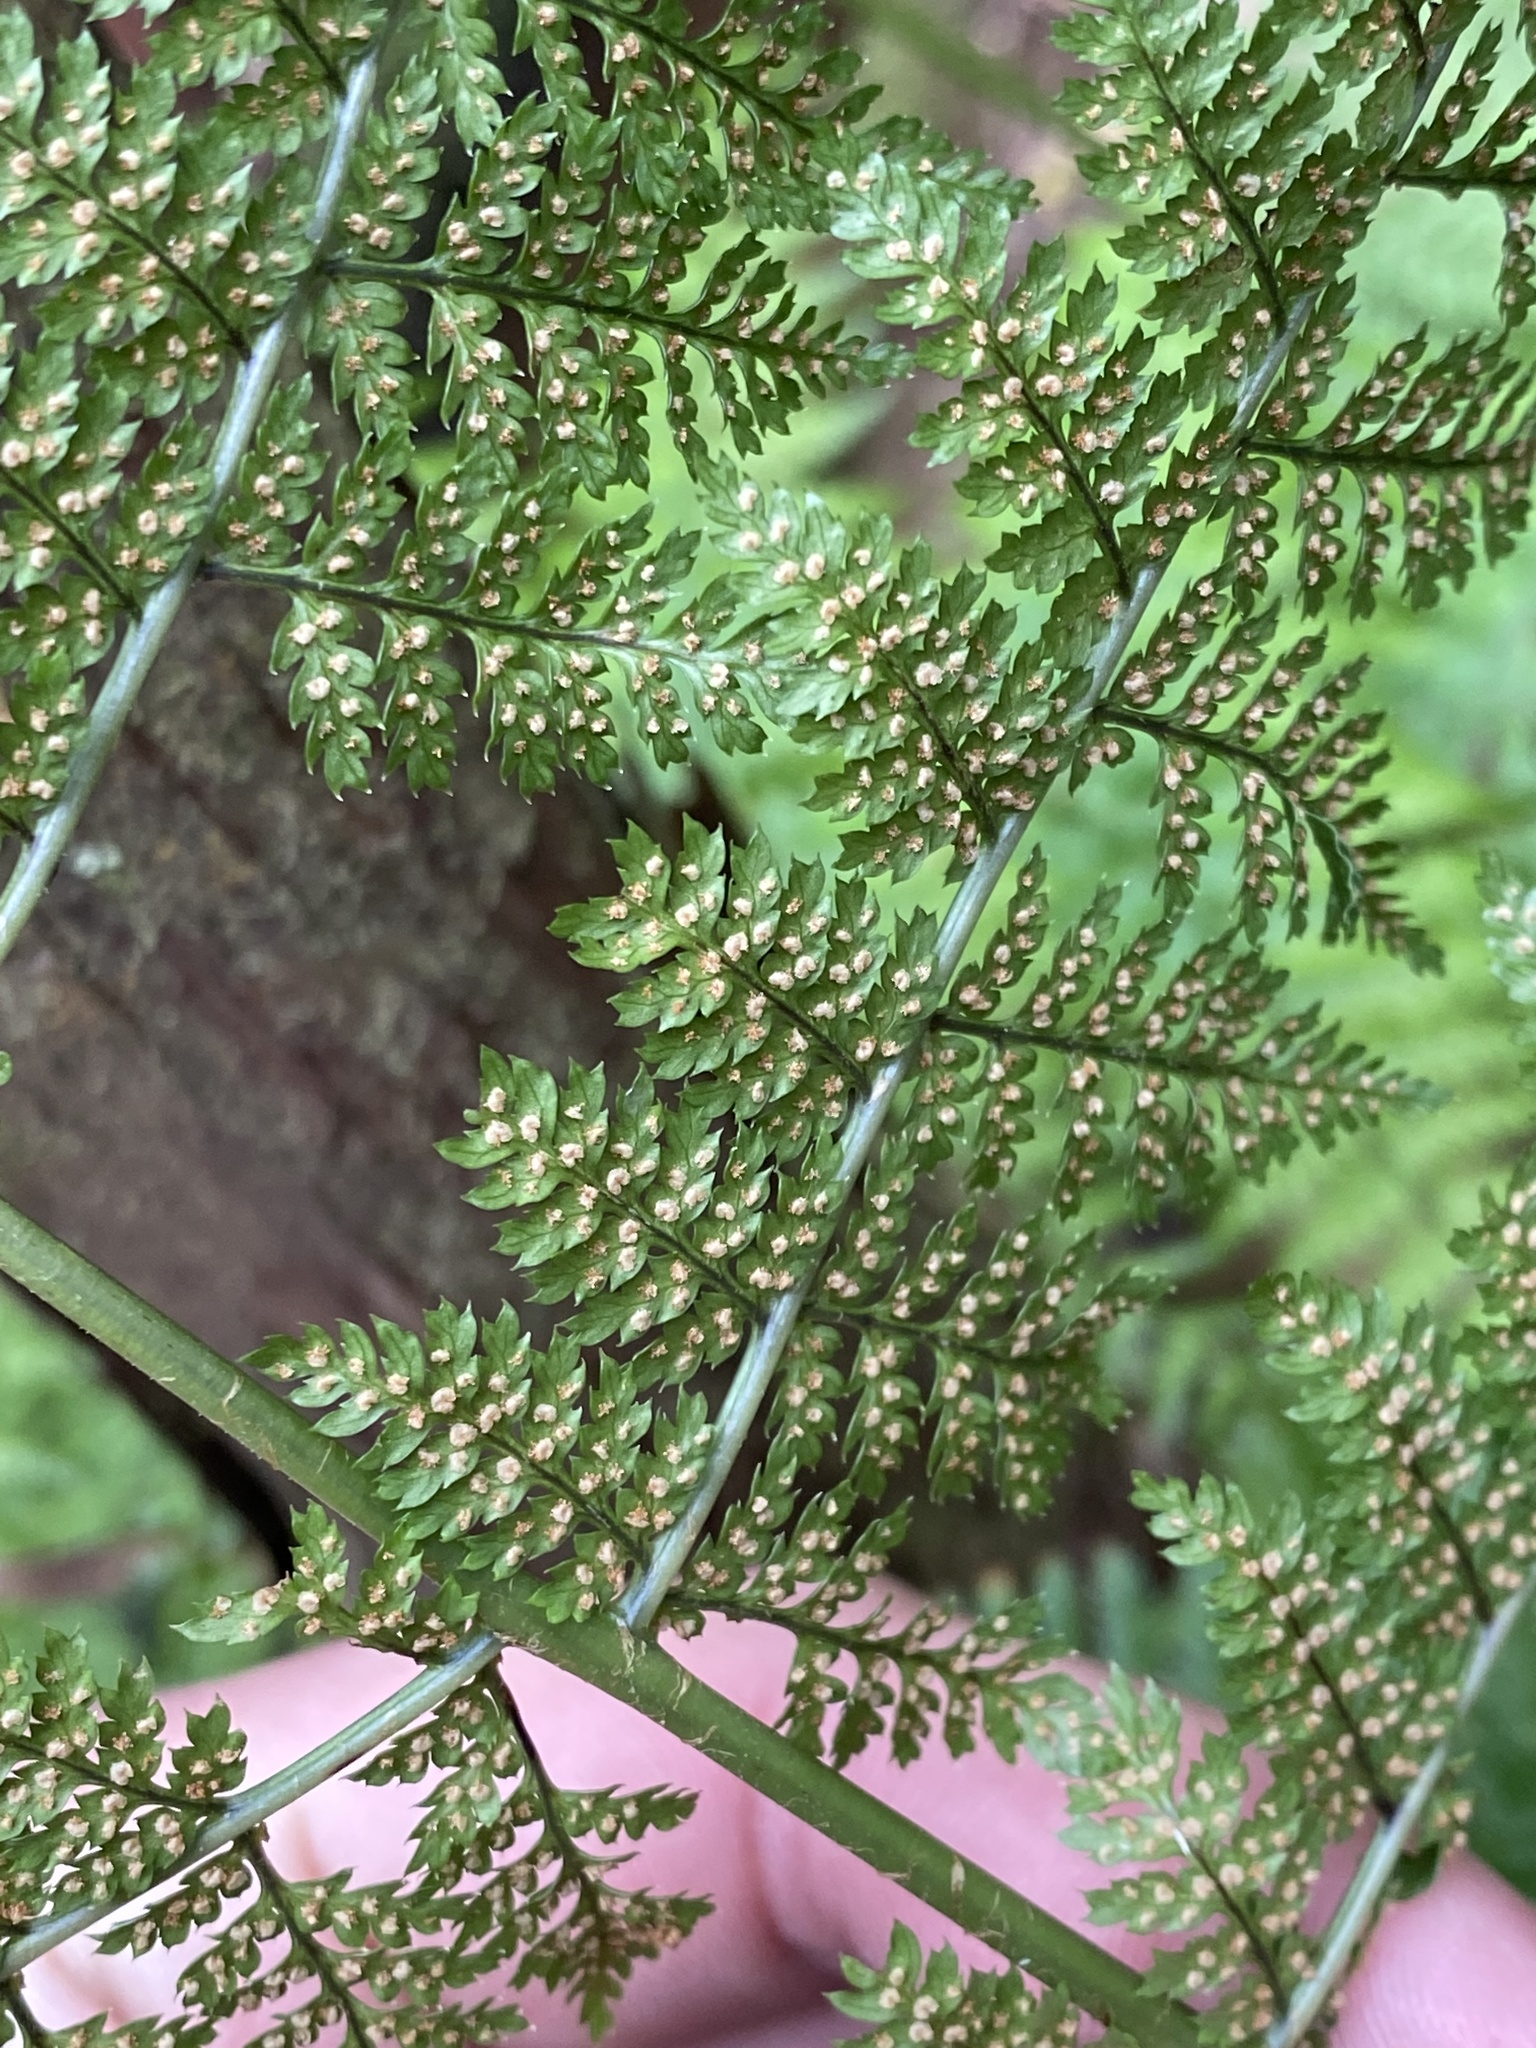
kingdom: Plantae
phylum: Tracheophyta
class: Polypodiopsida
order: Polypodiales
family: Dryopteridaceae
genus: Dryopteris
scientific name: Dryopteris intermedia
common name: Evergreen wood fern
